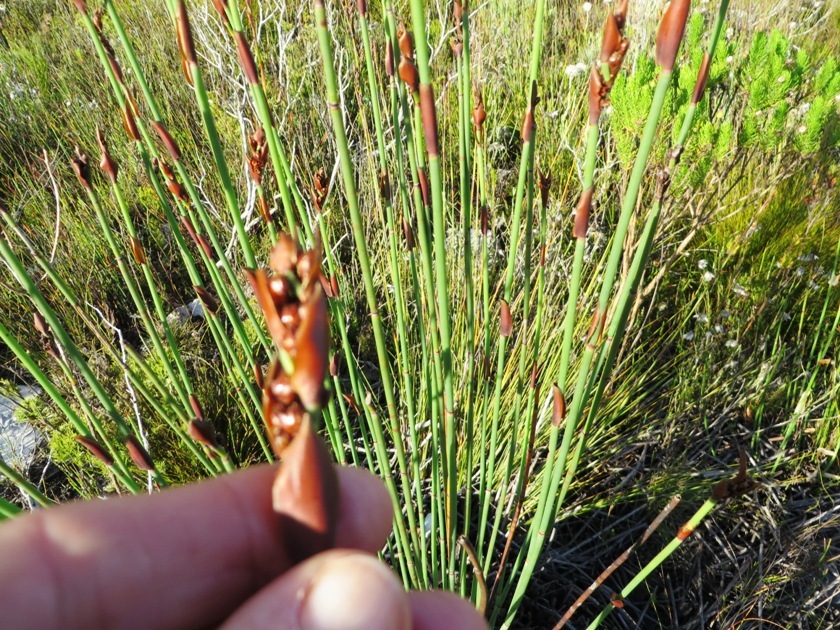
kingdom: Plantae
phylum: Tracheophyta
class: Liliopsida
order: Poales
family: Restionaceae
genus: Elegia
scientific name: Elegia aggregata
